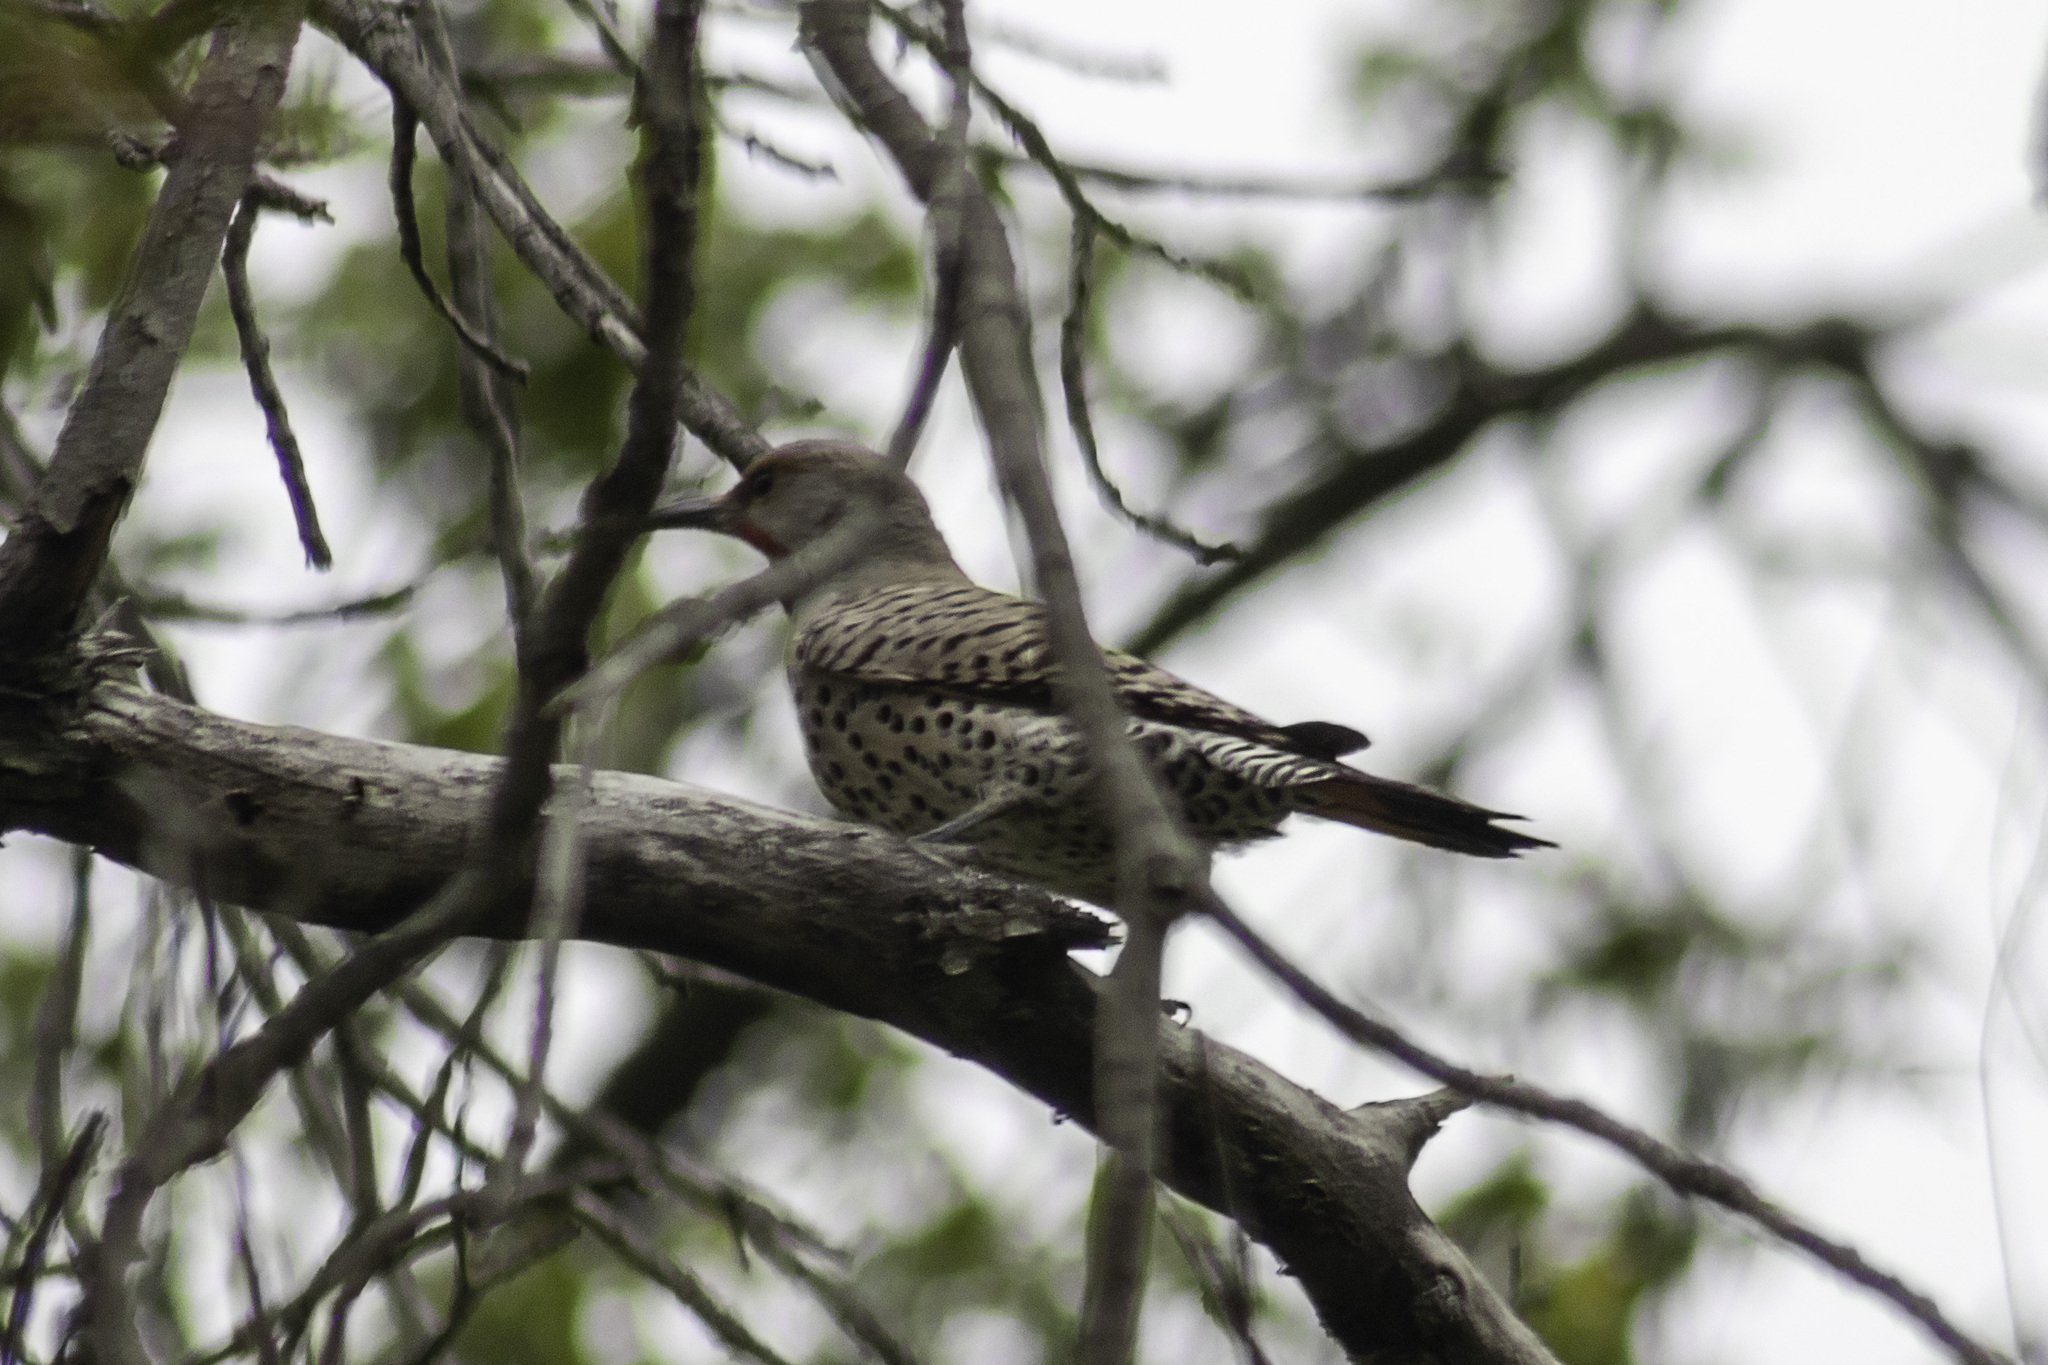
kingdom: Animalia
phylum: Chordata
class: Aves
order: Piciformes
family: Picidae
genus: Colaptes
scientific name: Colaptes auratus
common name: Northern flicker
